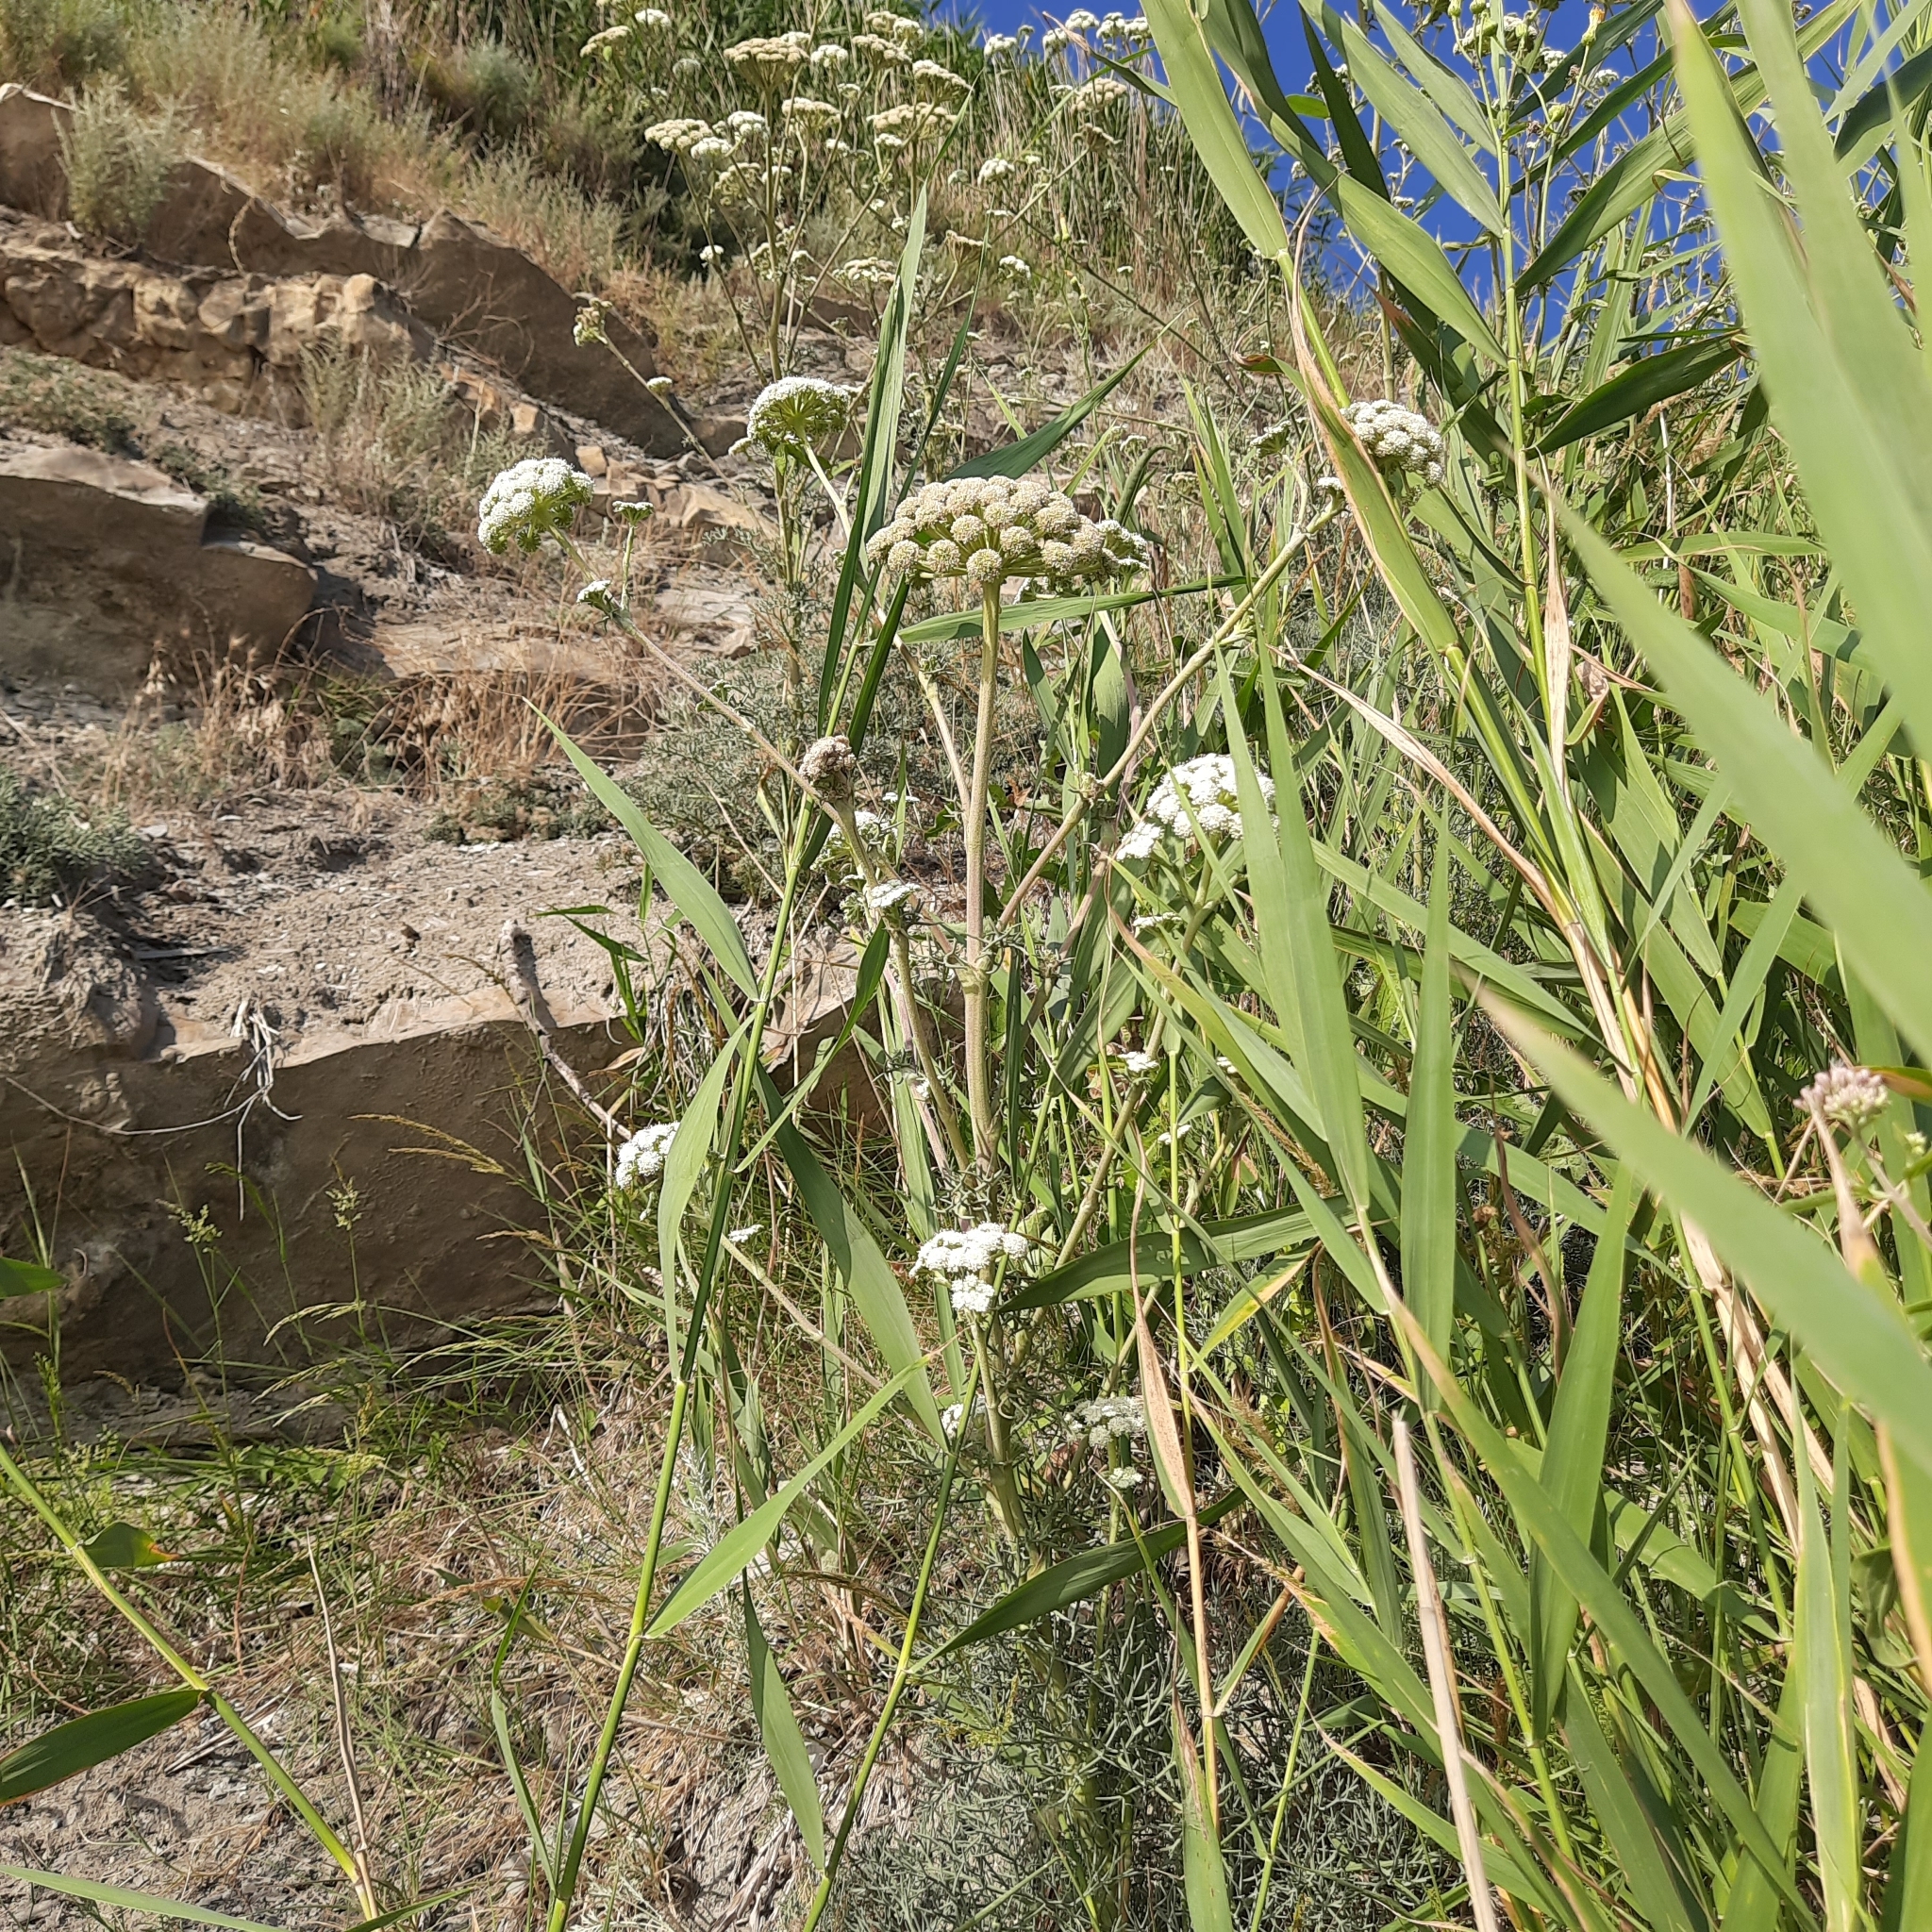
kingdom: Plantae
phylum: Tracheophyta
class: Magnoliopsida
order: Apiales
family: Apiaceae
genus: Seseli
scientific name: Seseli ponticum
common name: Pontic seseli
